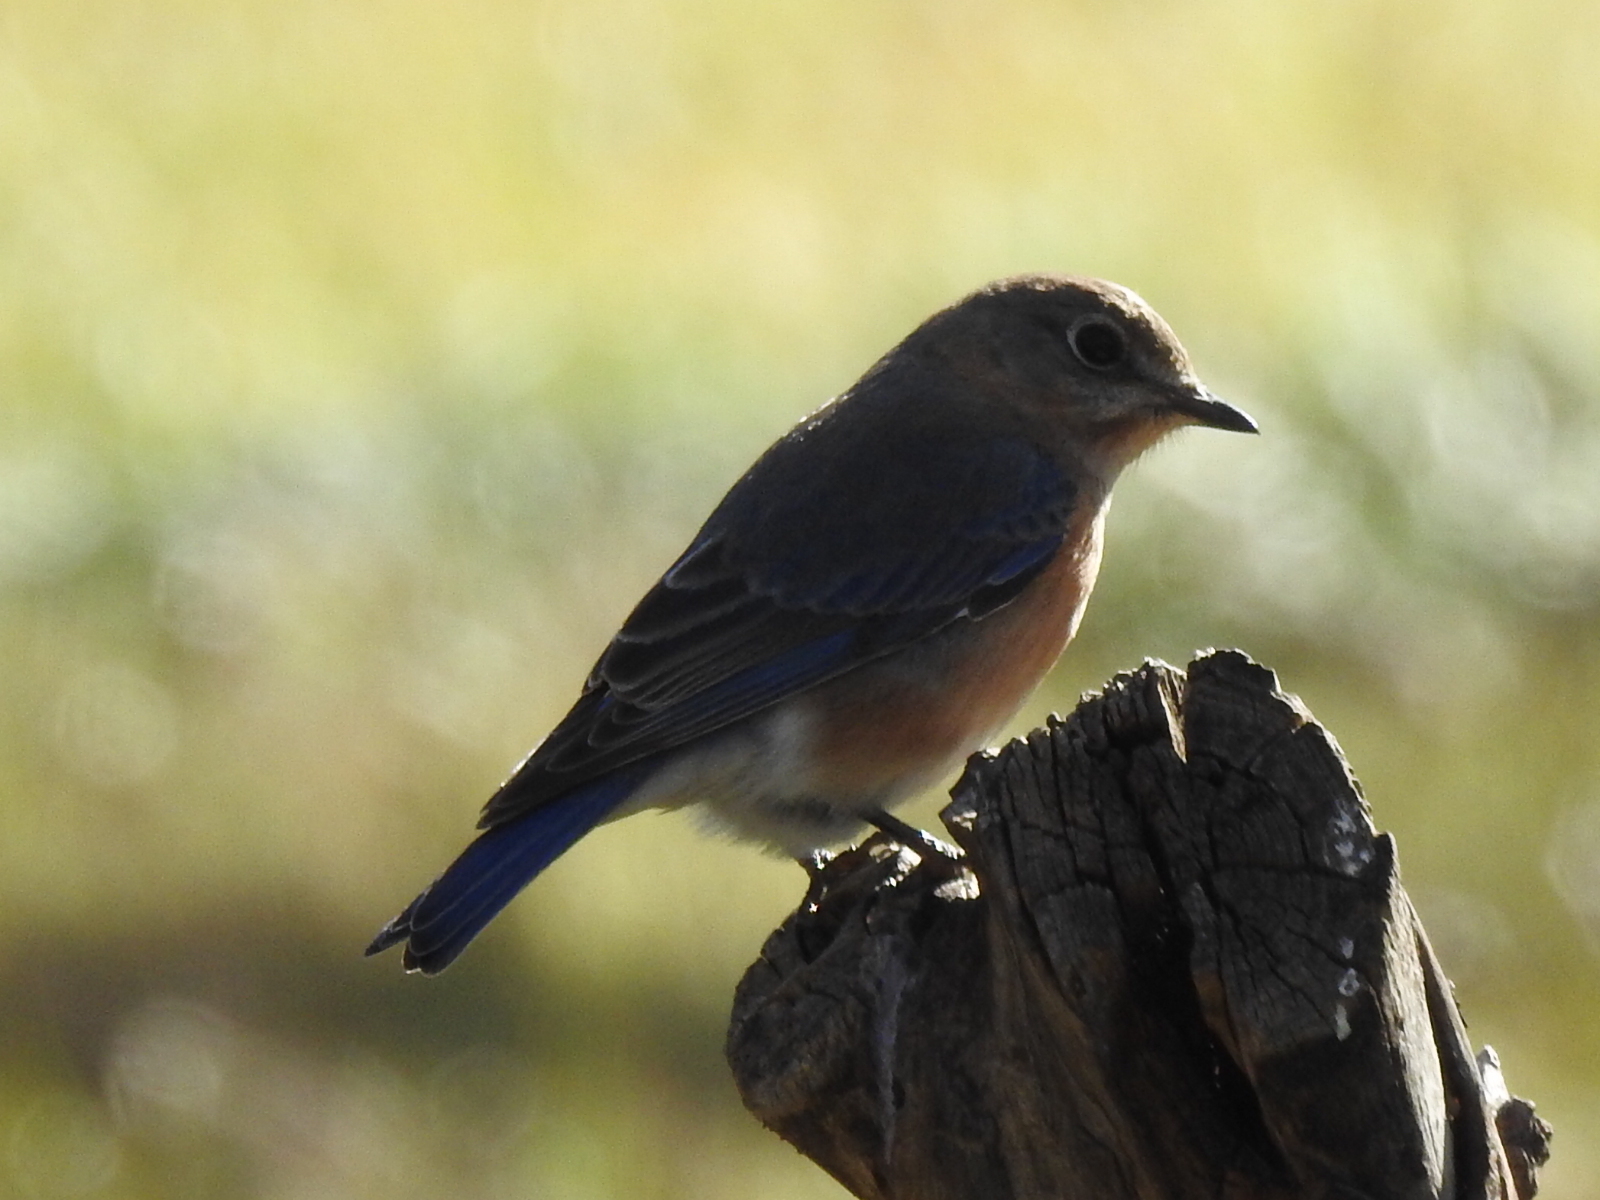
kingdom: Animalia
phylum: Chordata
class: Aves
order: Passeriformes
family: Turdidae
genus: Sialia
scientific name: Sialia sialis
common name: Eastern bluebird
